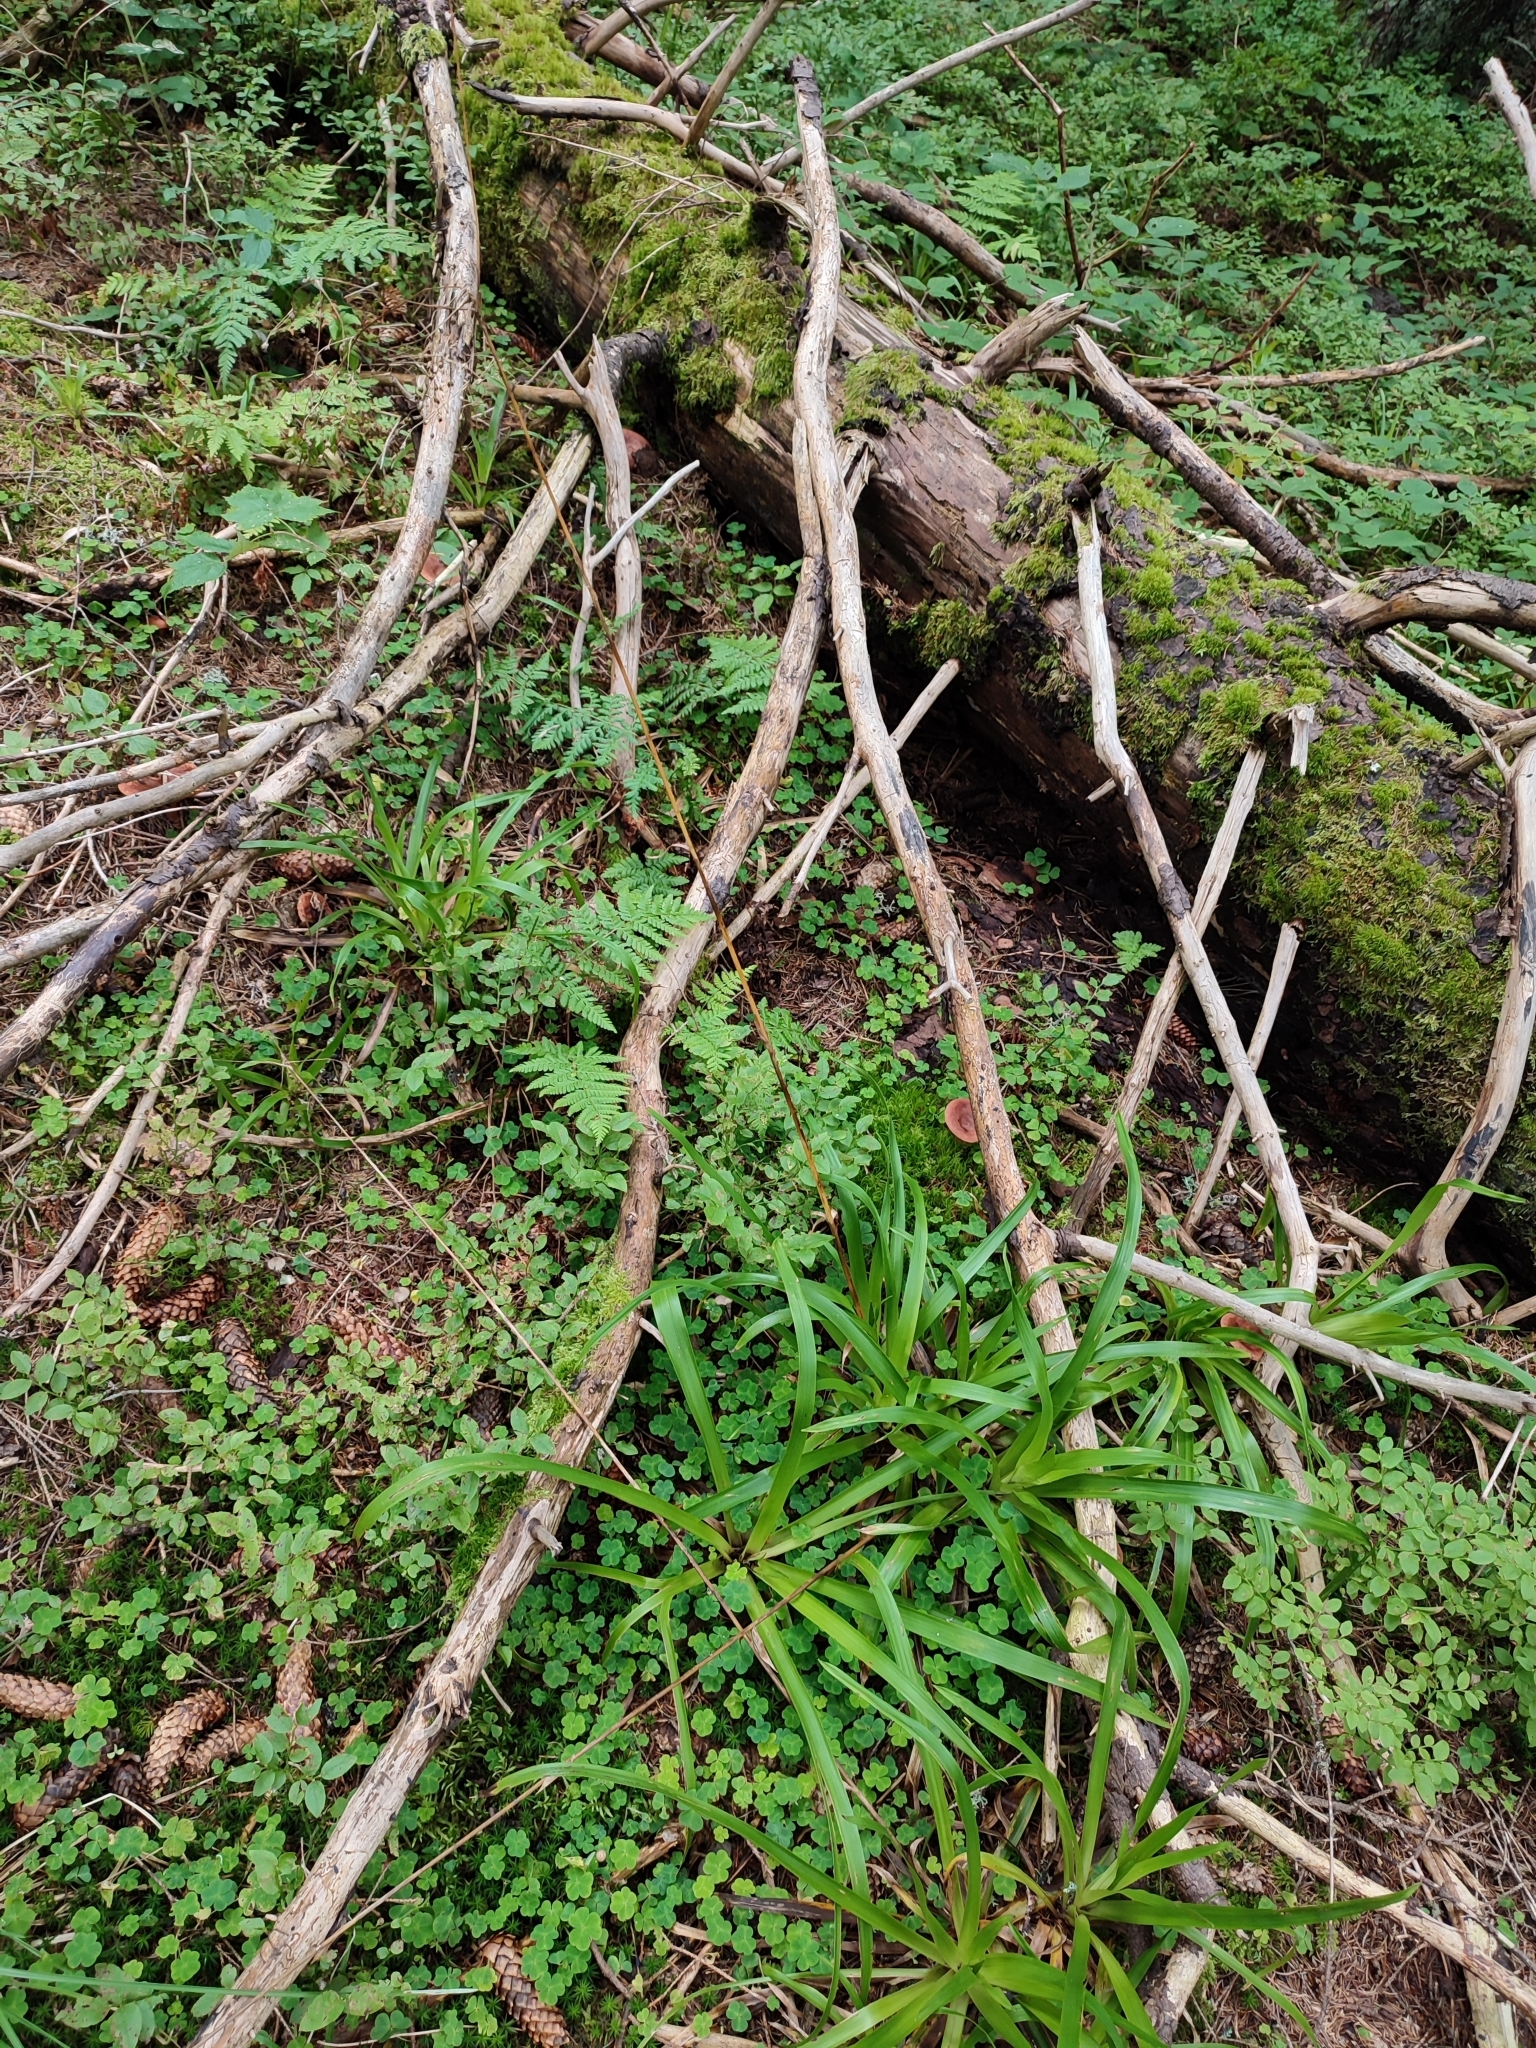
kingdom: Plantae
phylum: Tracheophyta
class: Liliopsida
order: Poales
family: Juncaceae
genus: Luzula
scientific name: Luzula sylvatica
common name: Great wood-rush
